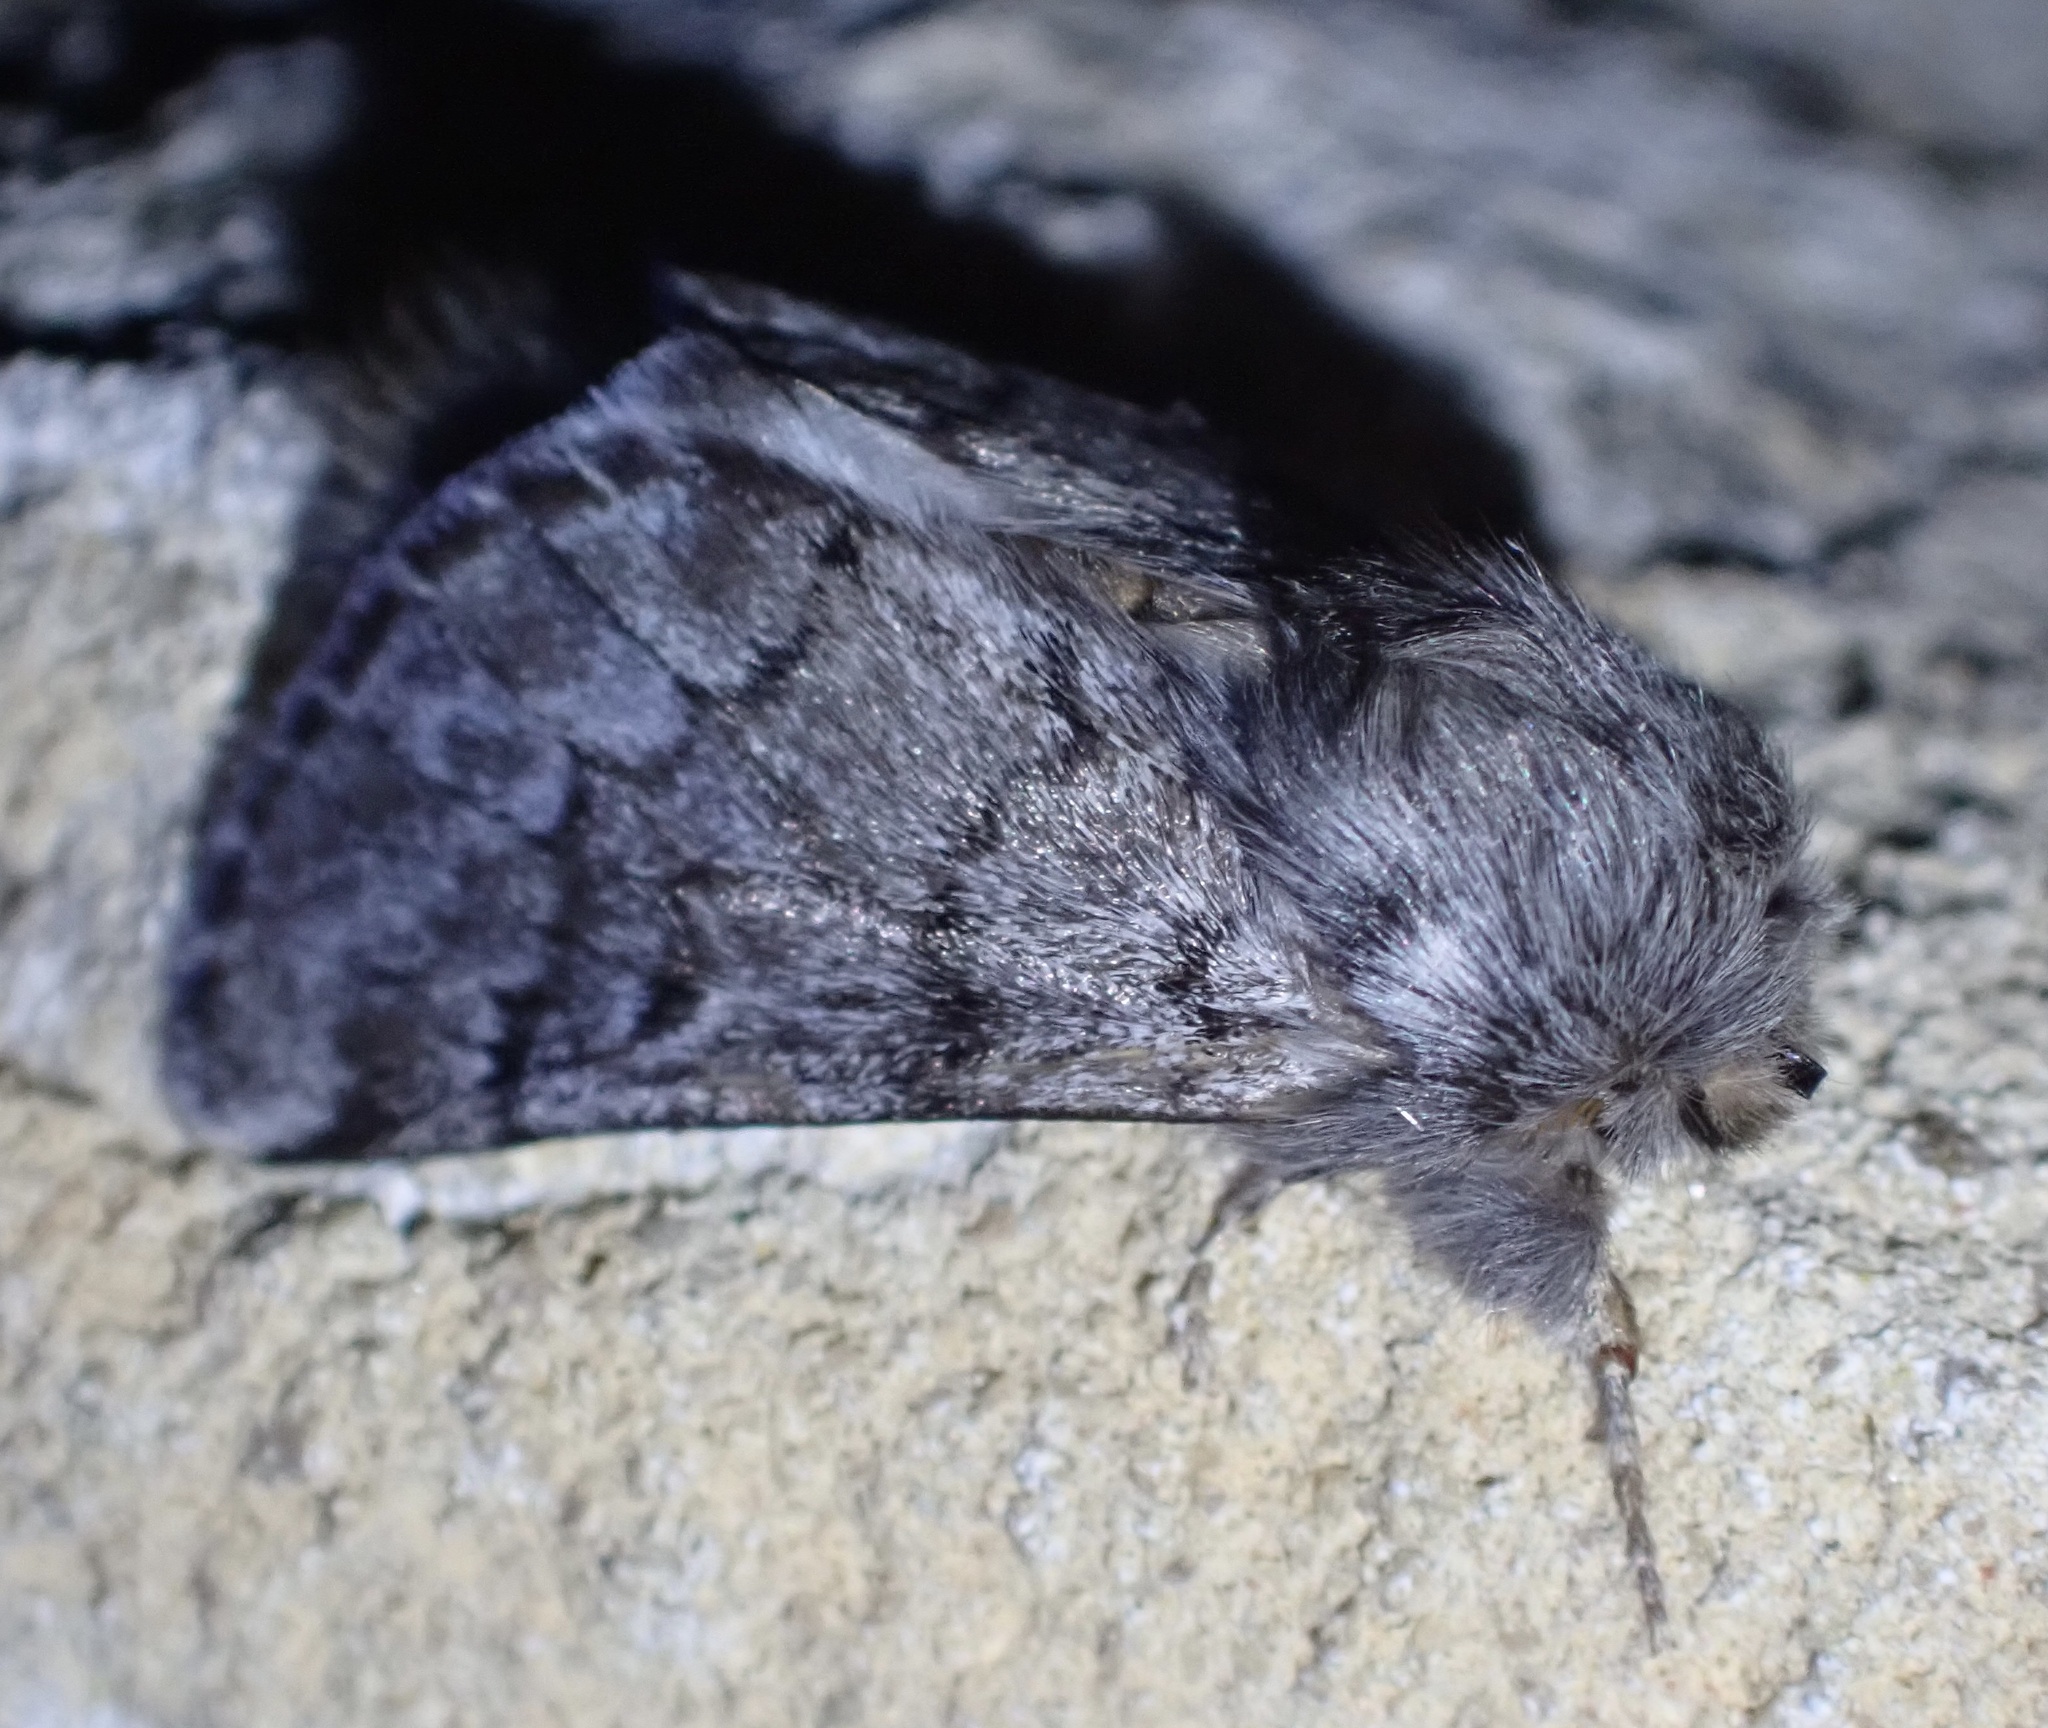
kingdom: Animalia
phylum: Arthropoda
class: Insecta
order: Lepidoptera
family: Notodontidae
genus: Thaumetopoea
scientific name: Thaumetopoea pityocampa
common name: Pine processionary
